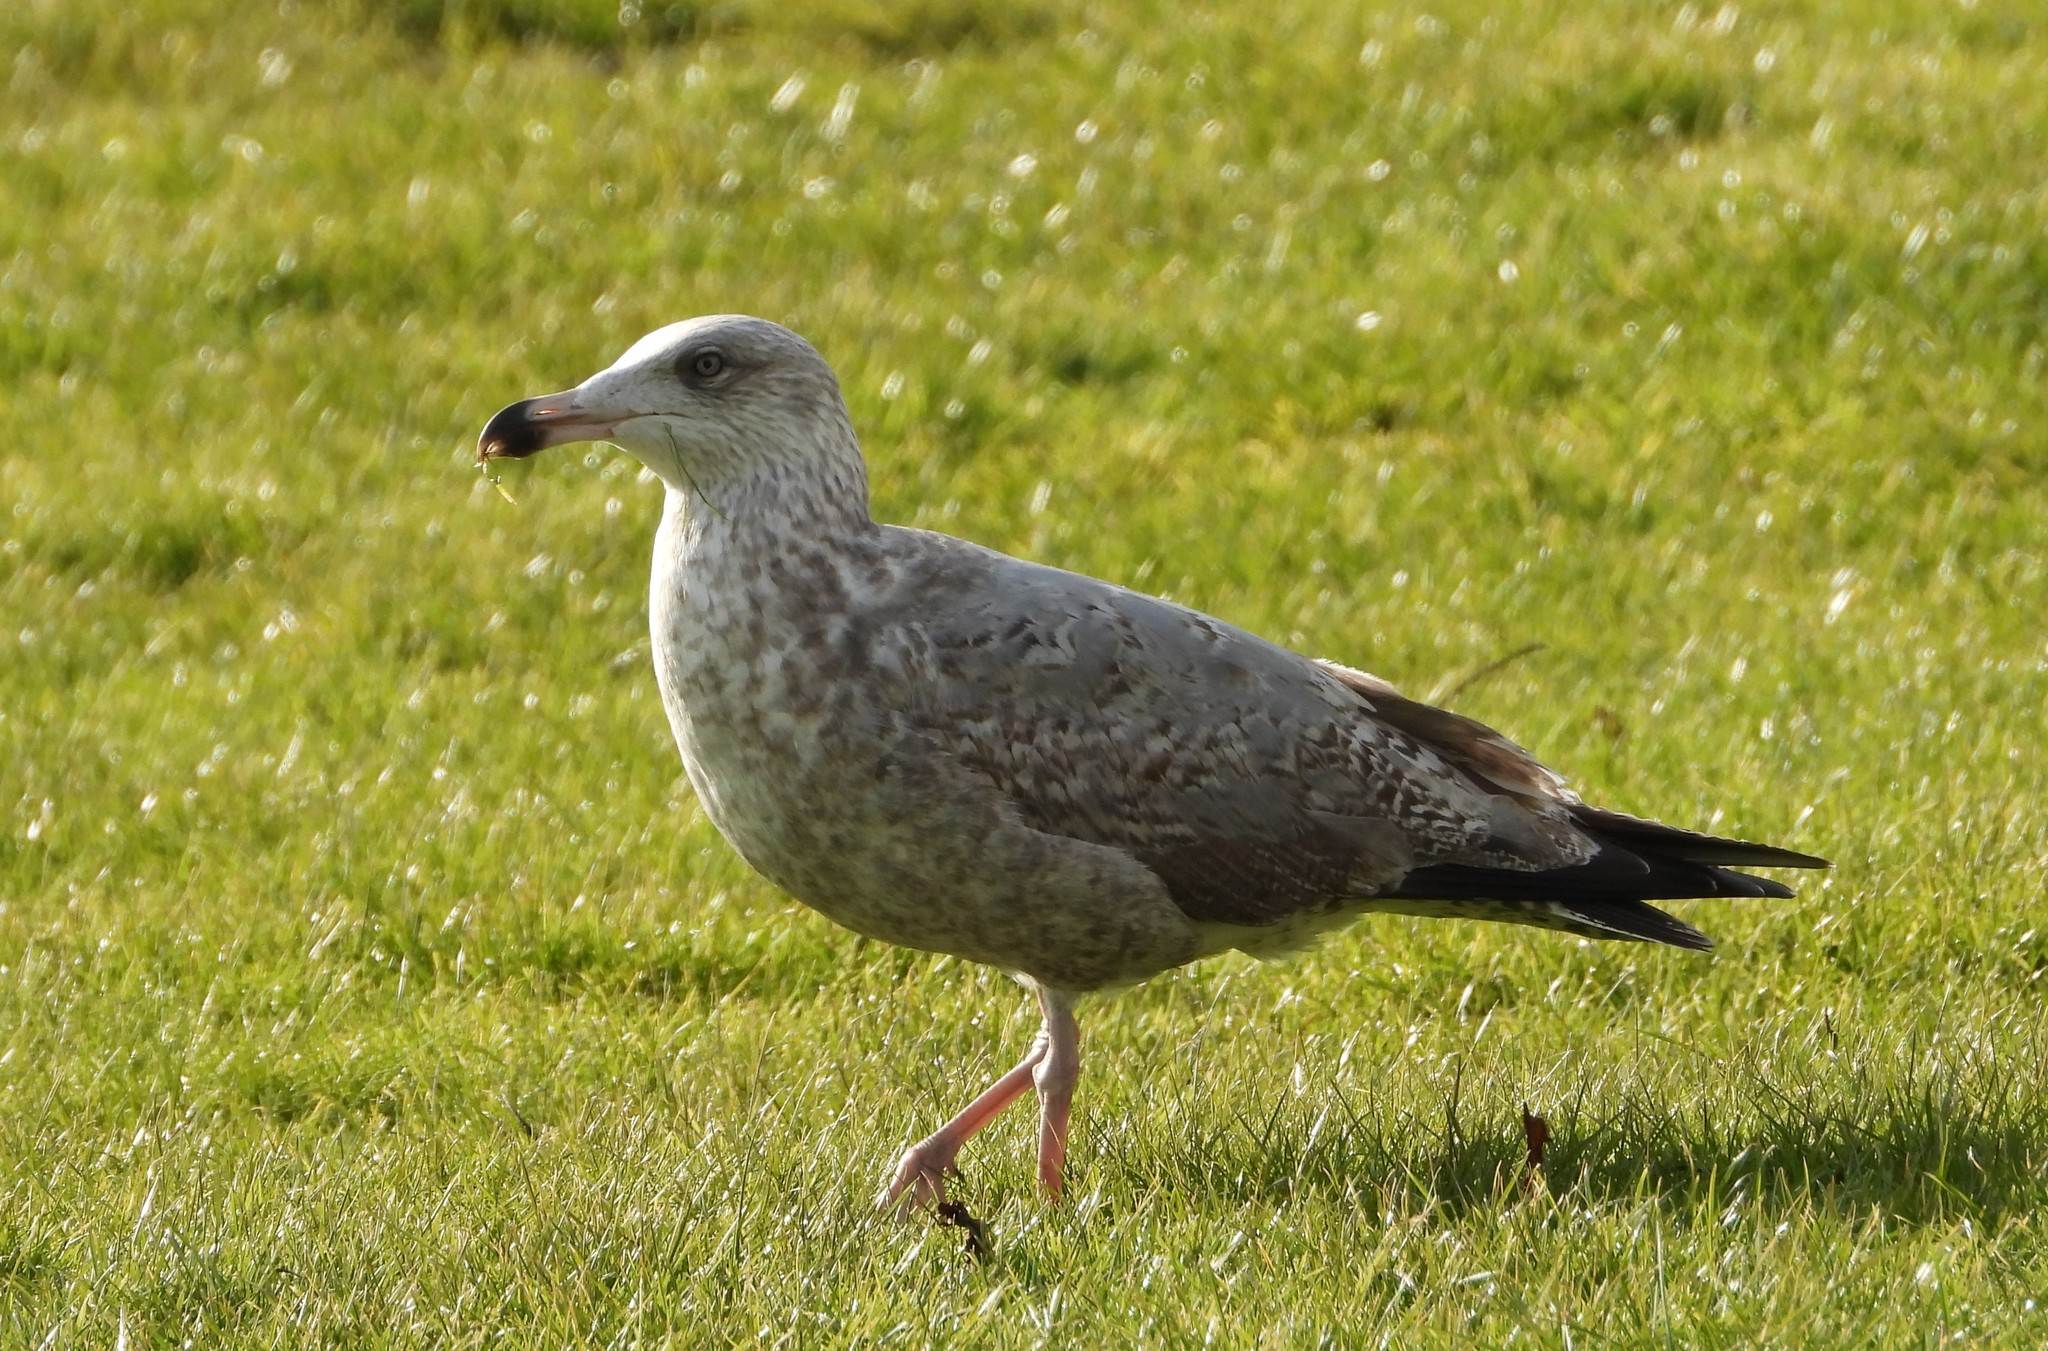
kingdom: Animalia
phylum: Chordata
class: Aves
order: Charadriiformes
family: Laridae
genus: Larus
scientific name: Larus argentatus
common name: Herring gull
